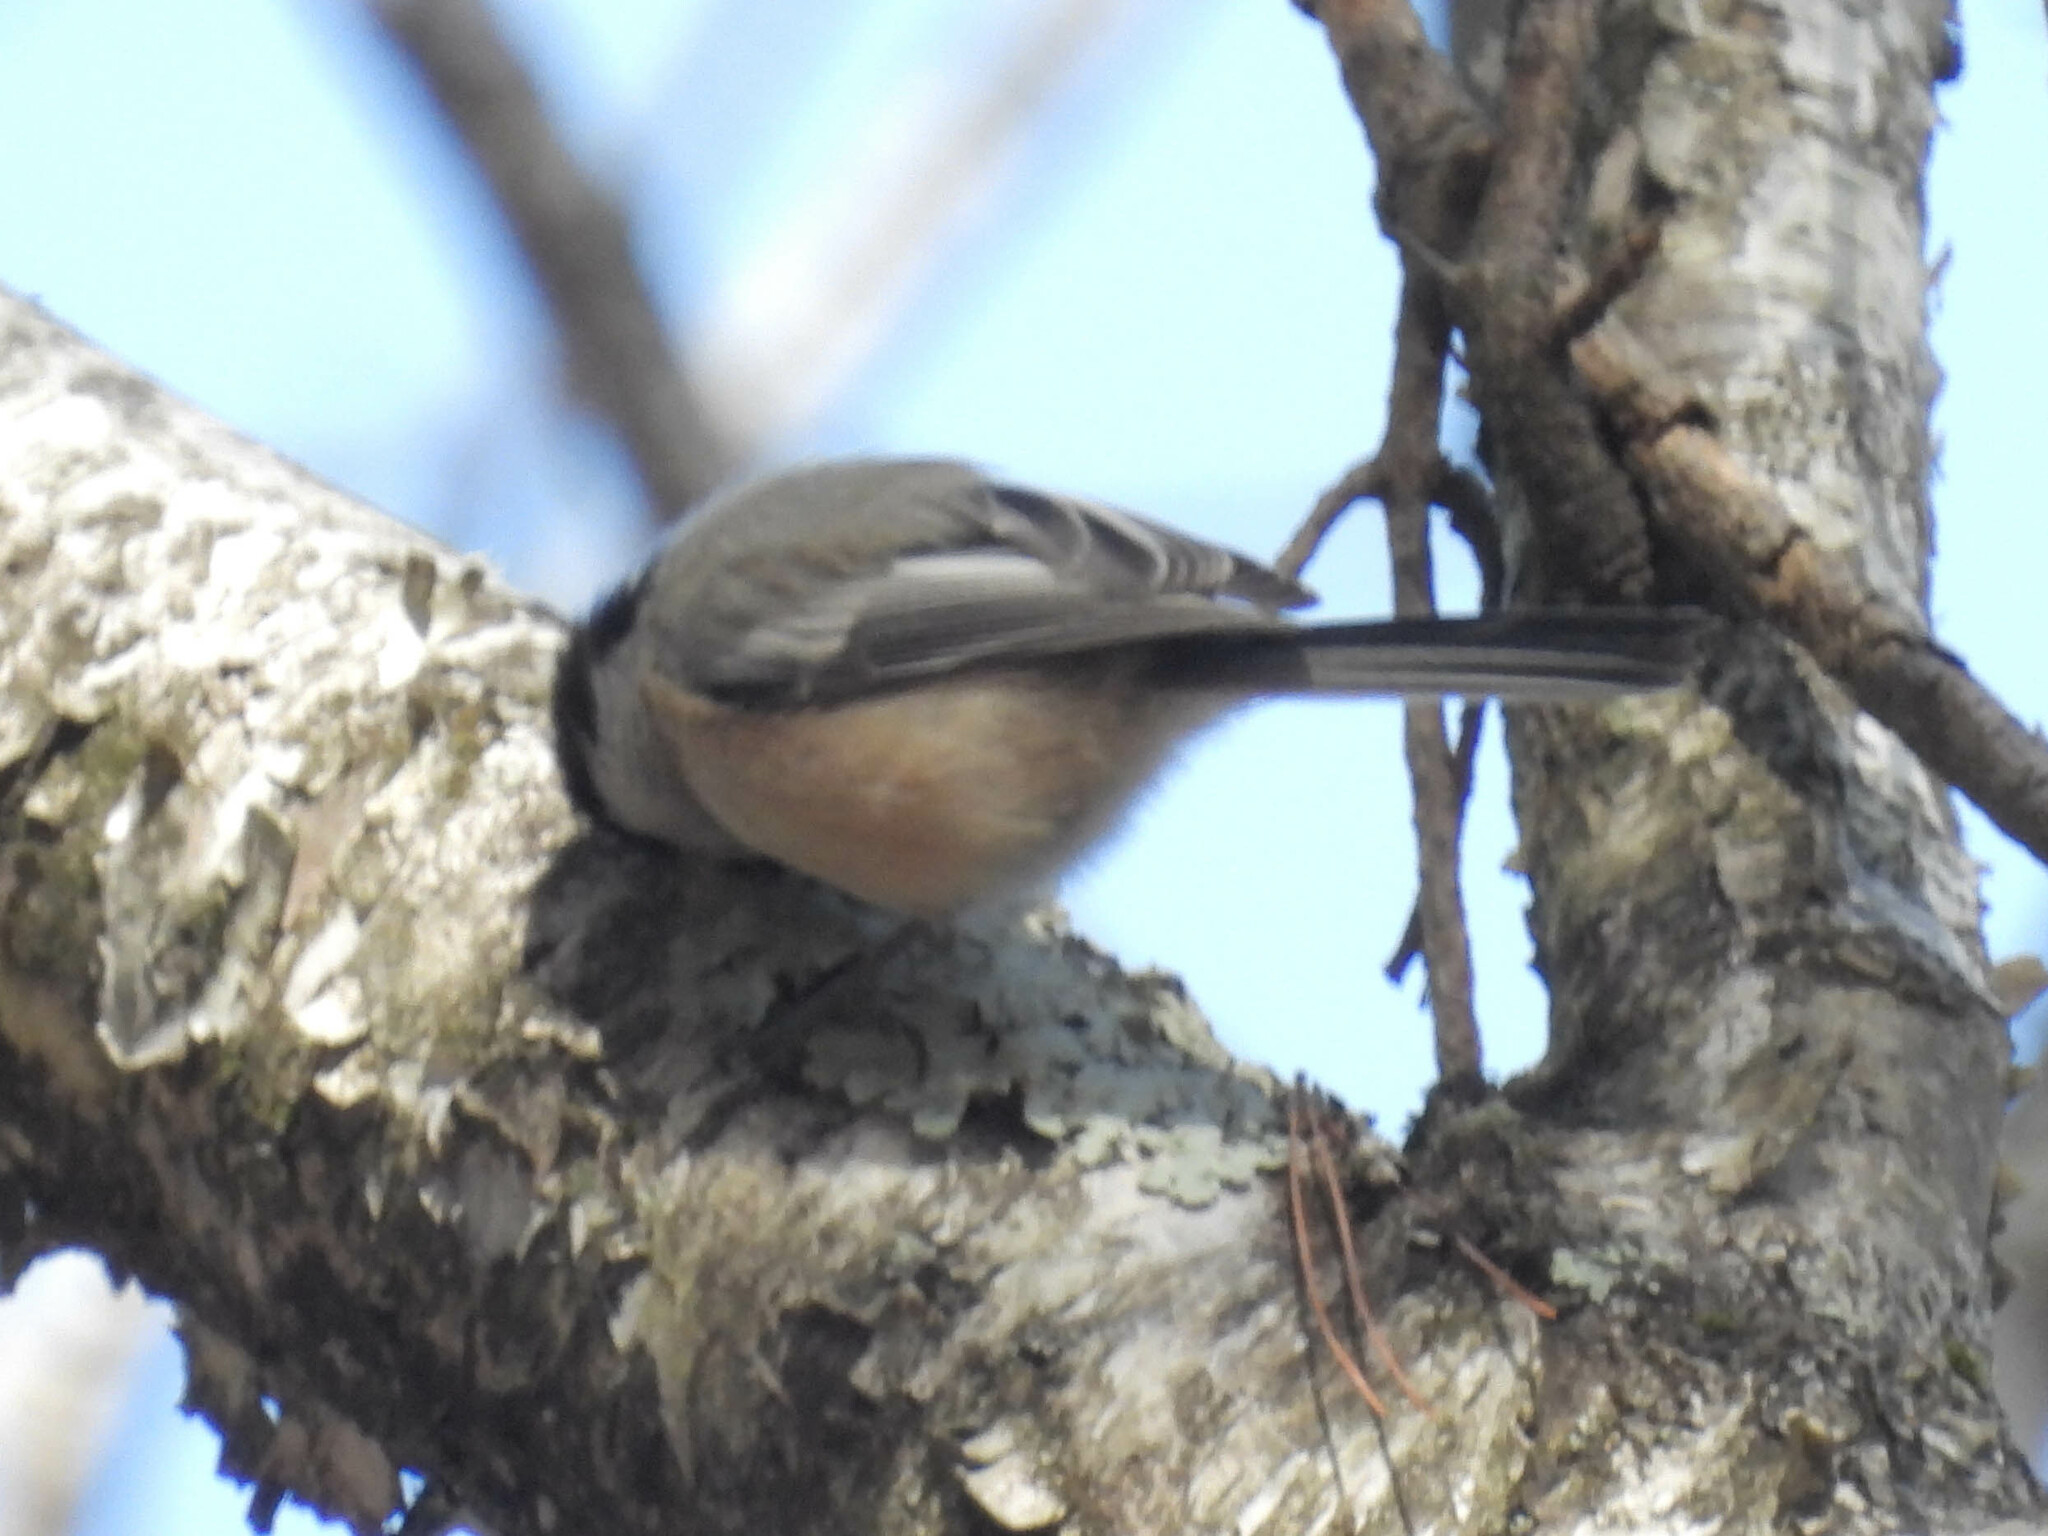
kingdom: Animalia
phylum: Chordata
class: Aves
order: Passeriformes
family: Paridae
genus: Poecile
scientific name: Poecile atricapillus
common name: Black-capped chickadee
